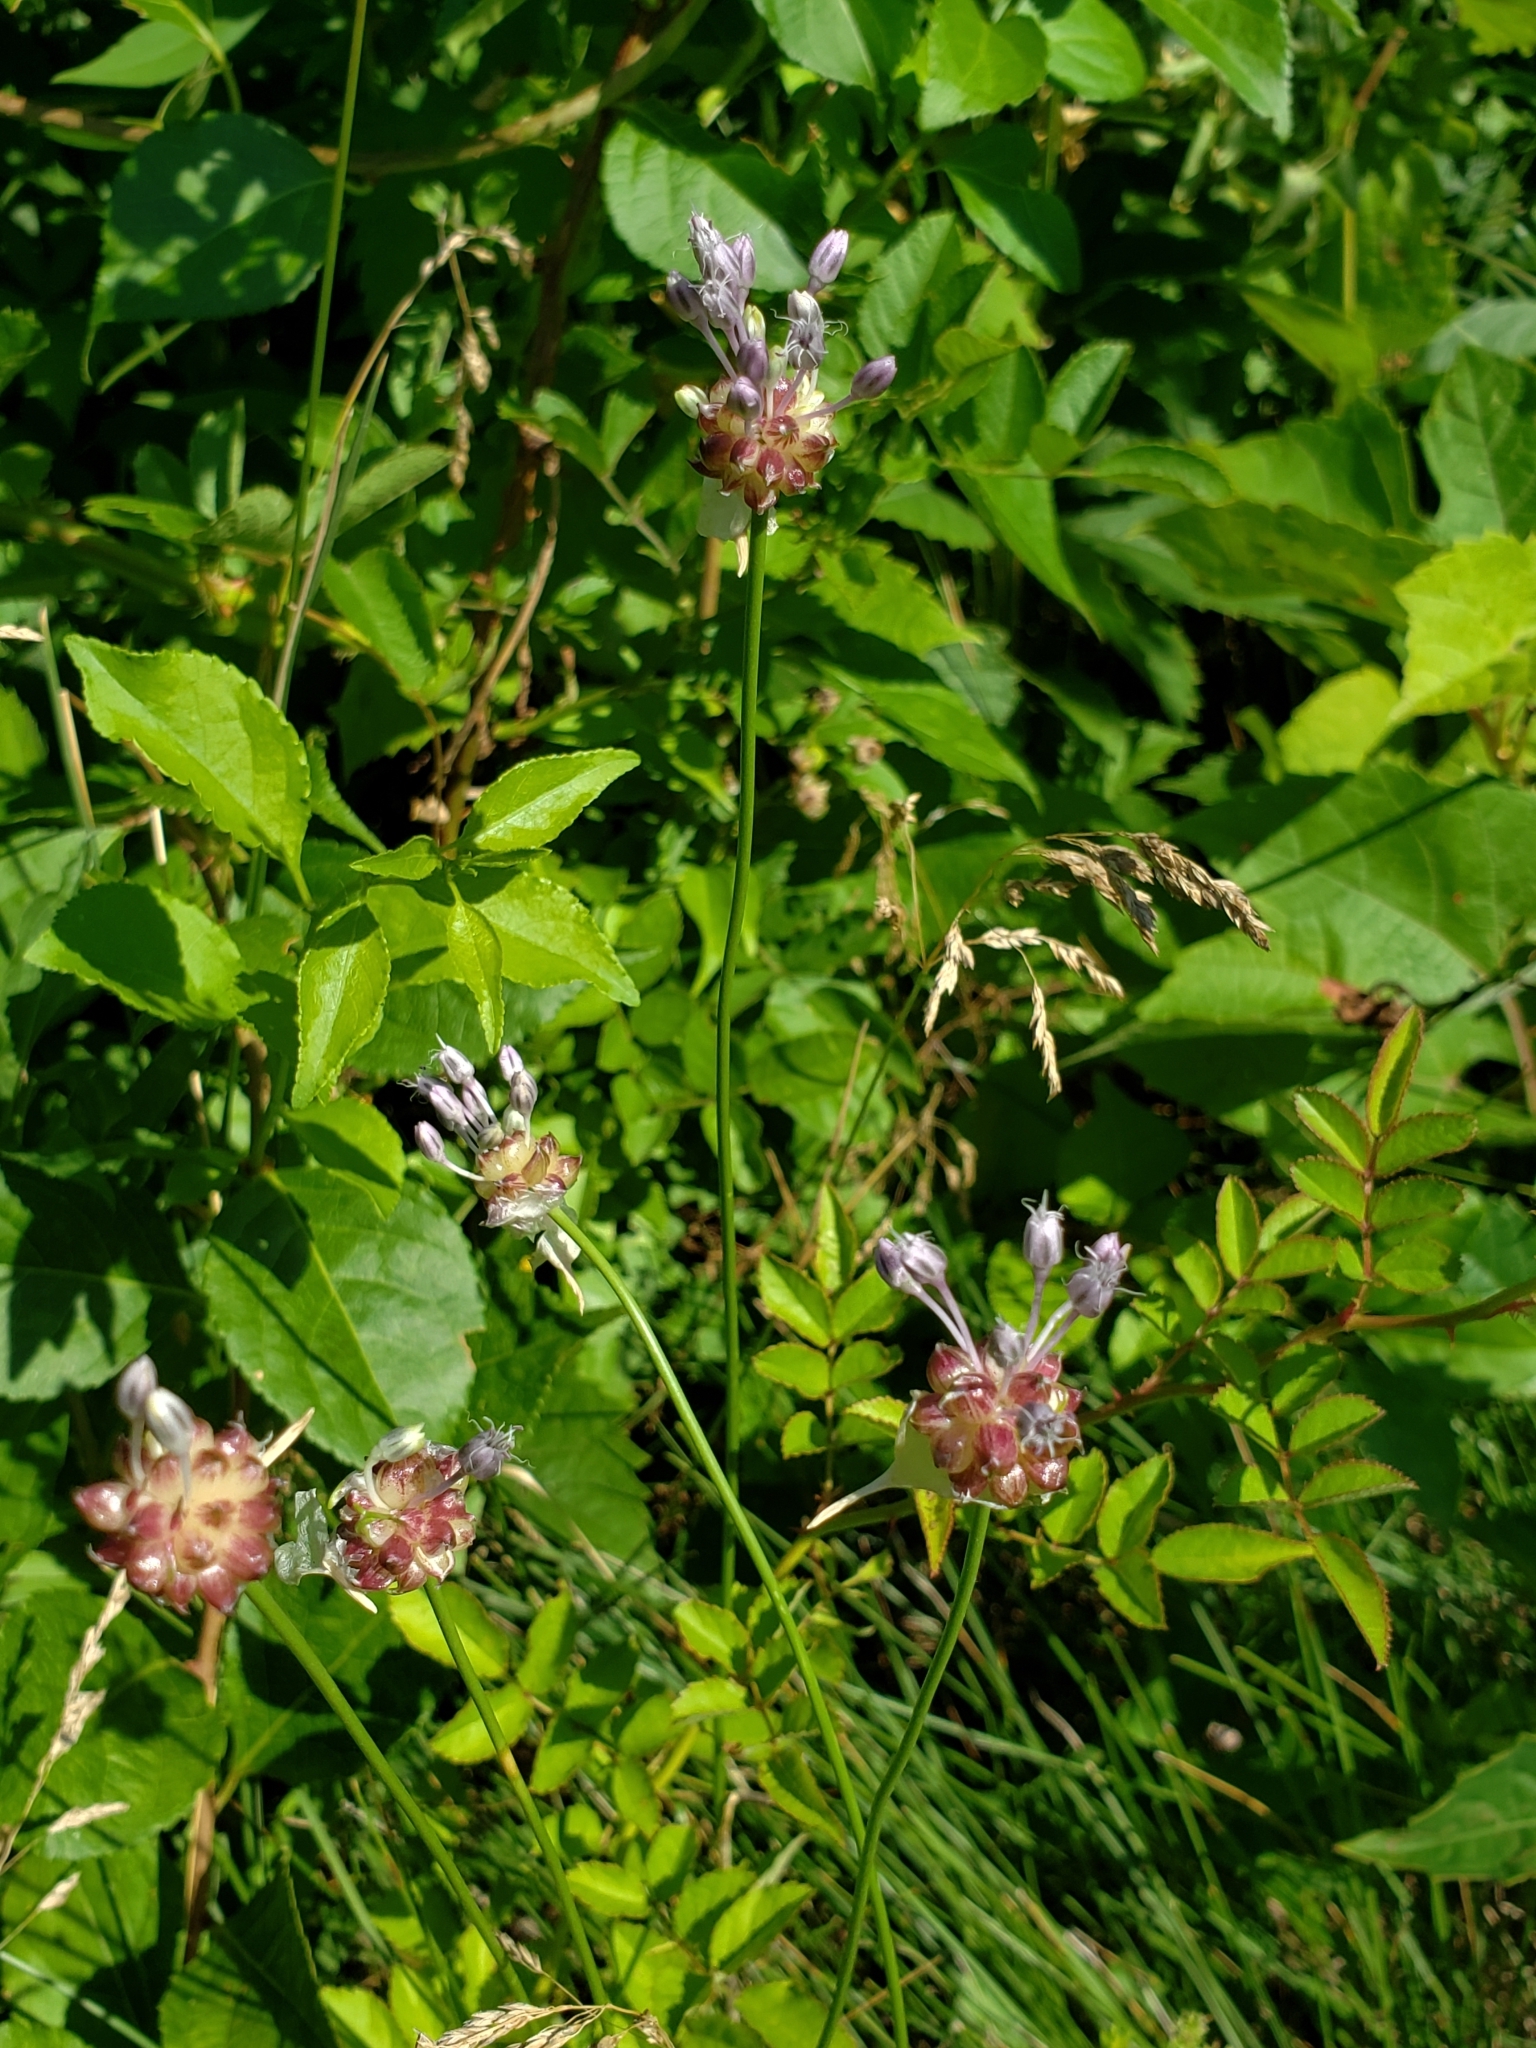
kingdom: Plantae
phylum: Tracheophyta
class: Liliopsida
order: Asparagales
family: Amaryllidaceae
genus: Allium
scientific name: Allium vineale
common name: Crow garlic
